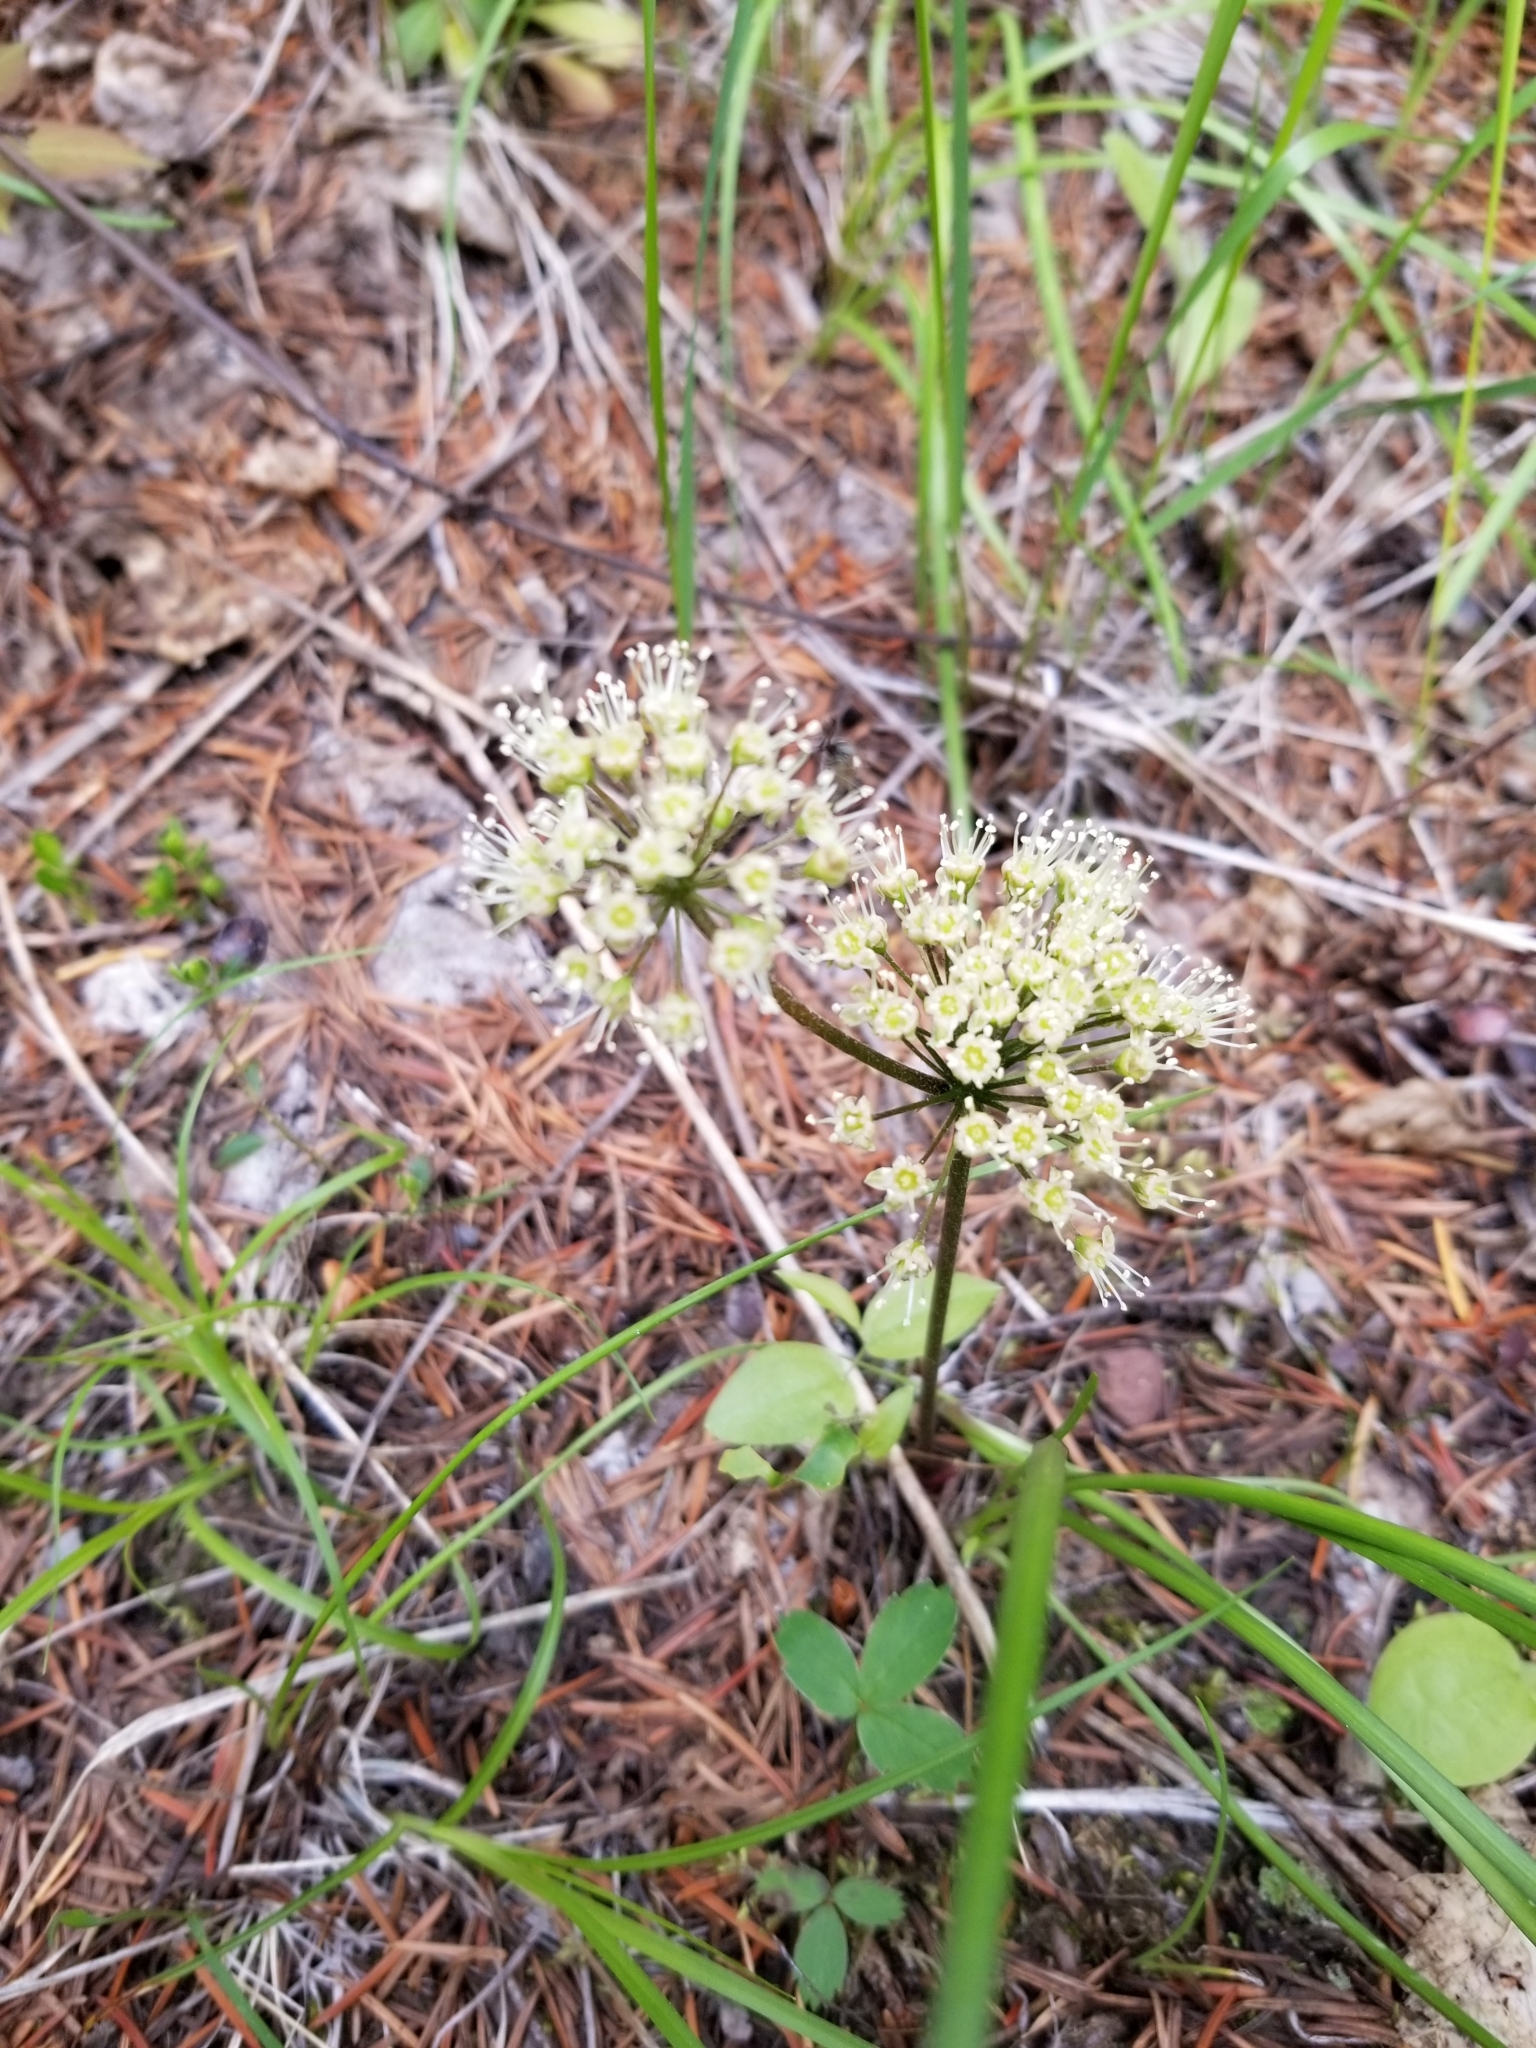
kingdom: Plantae
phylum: Tracheophyta
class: Magnoliopsida
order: Apiales
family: Araliaceae
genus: Aralia
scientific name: Aralia nudicaulis
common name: Wild sarsaparilla
